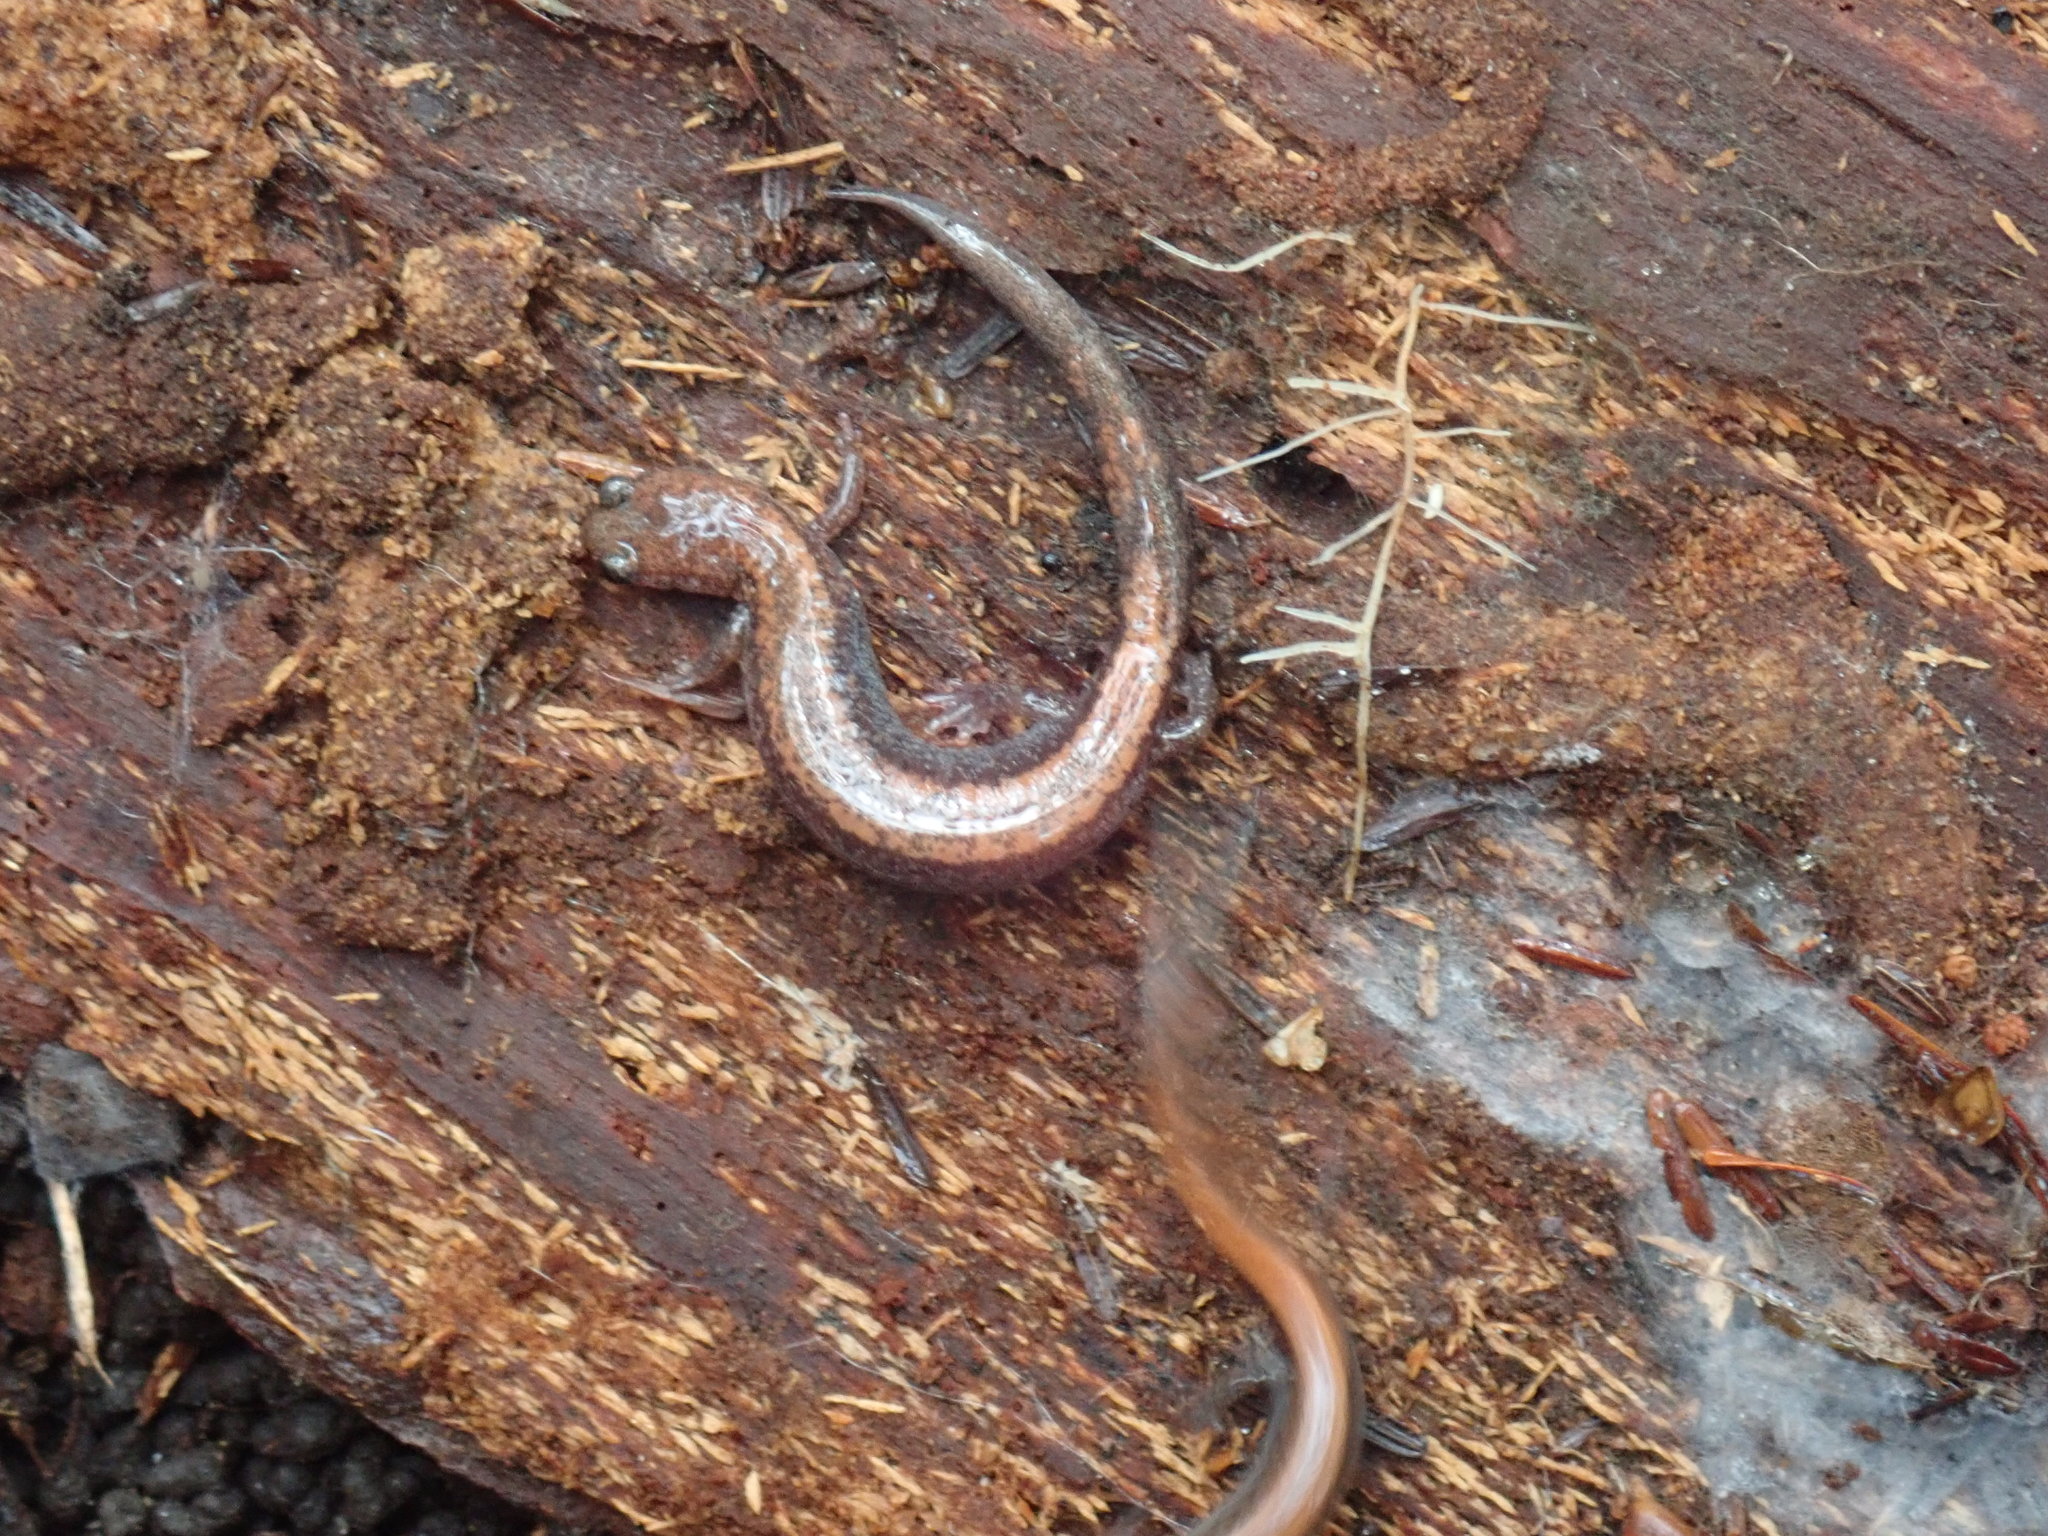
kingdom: Animalia
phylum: Chordata
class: Amphibia
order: Caudata
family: Plethodontidae
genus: Plethodon
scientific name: Plethodon cinereus
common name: Redback salamander
